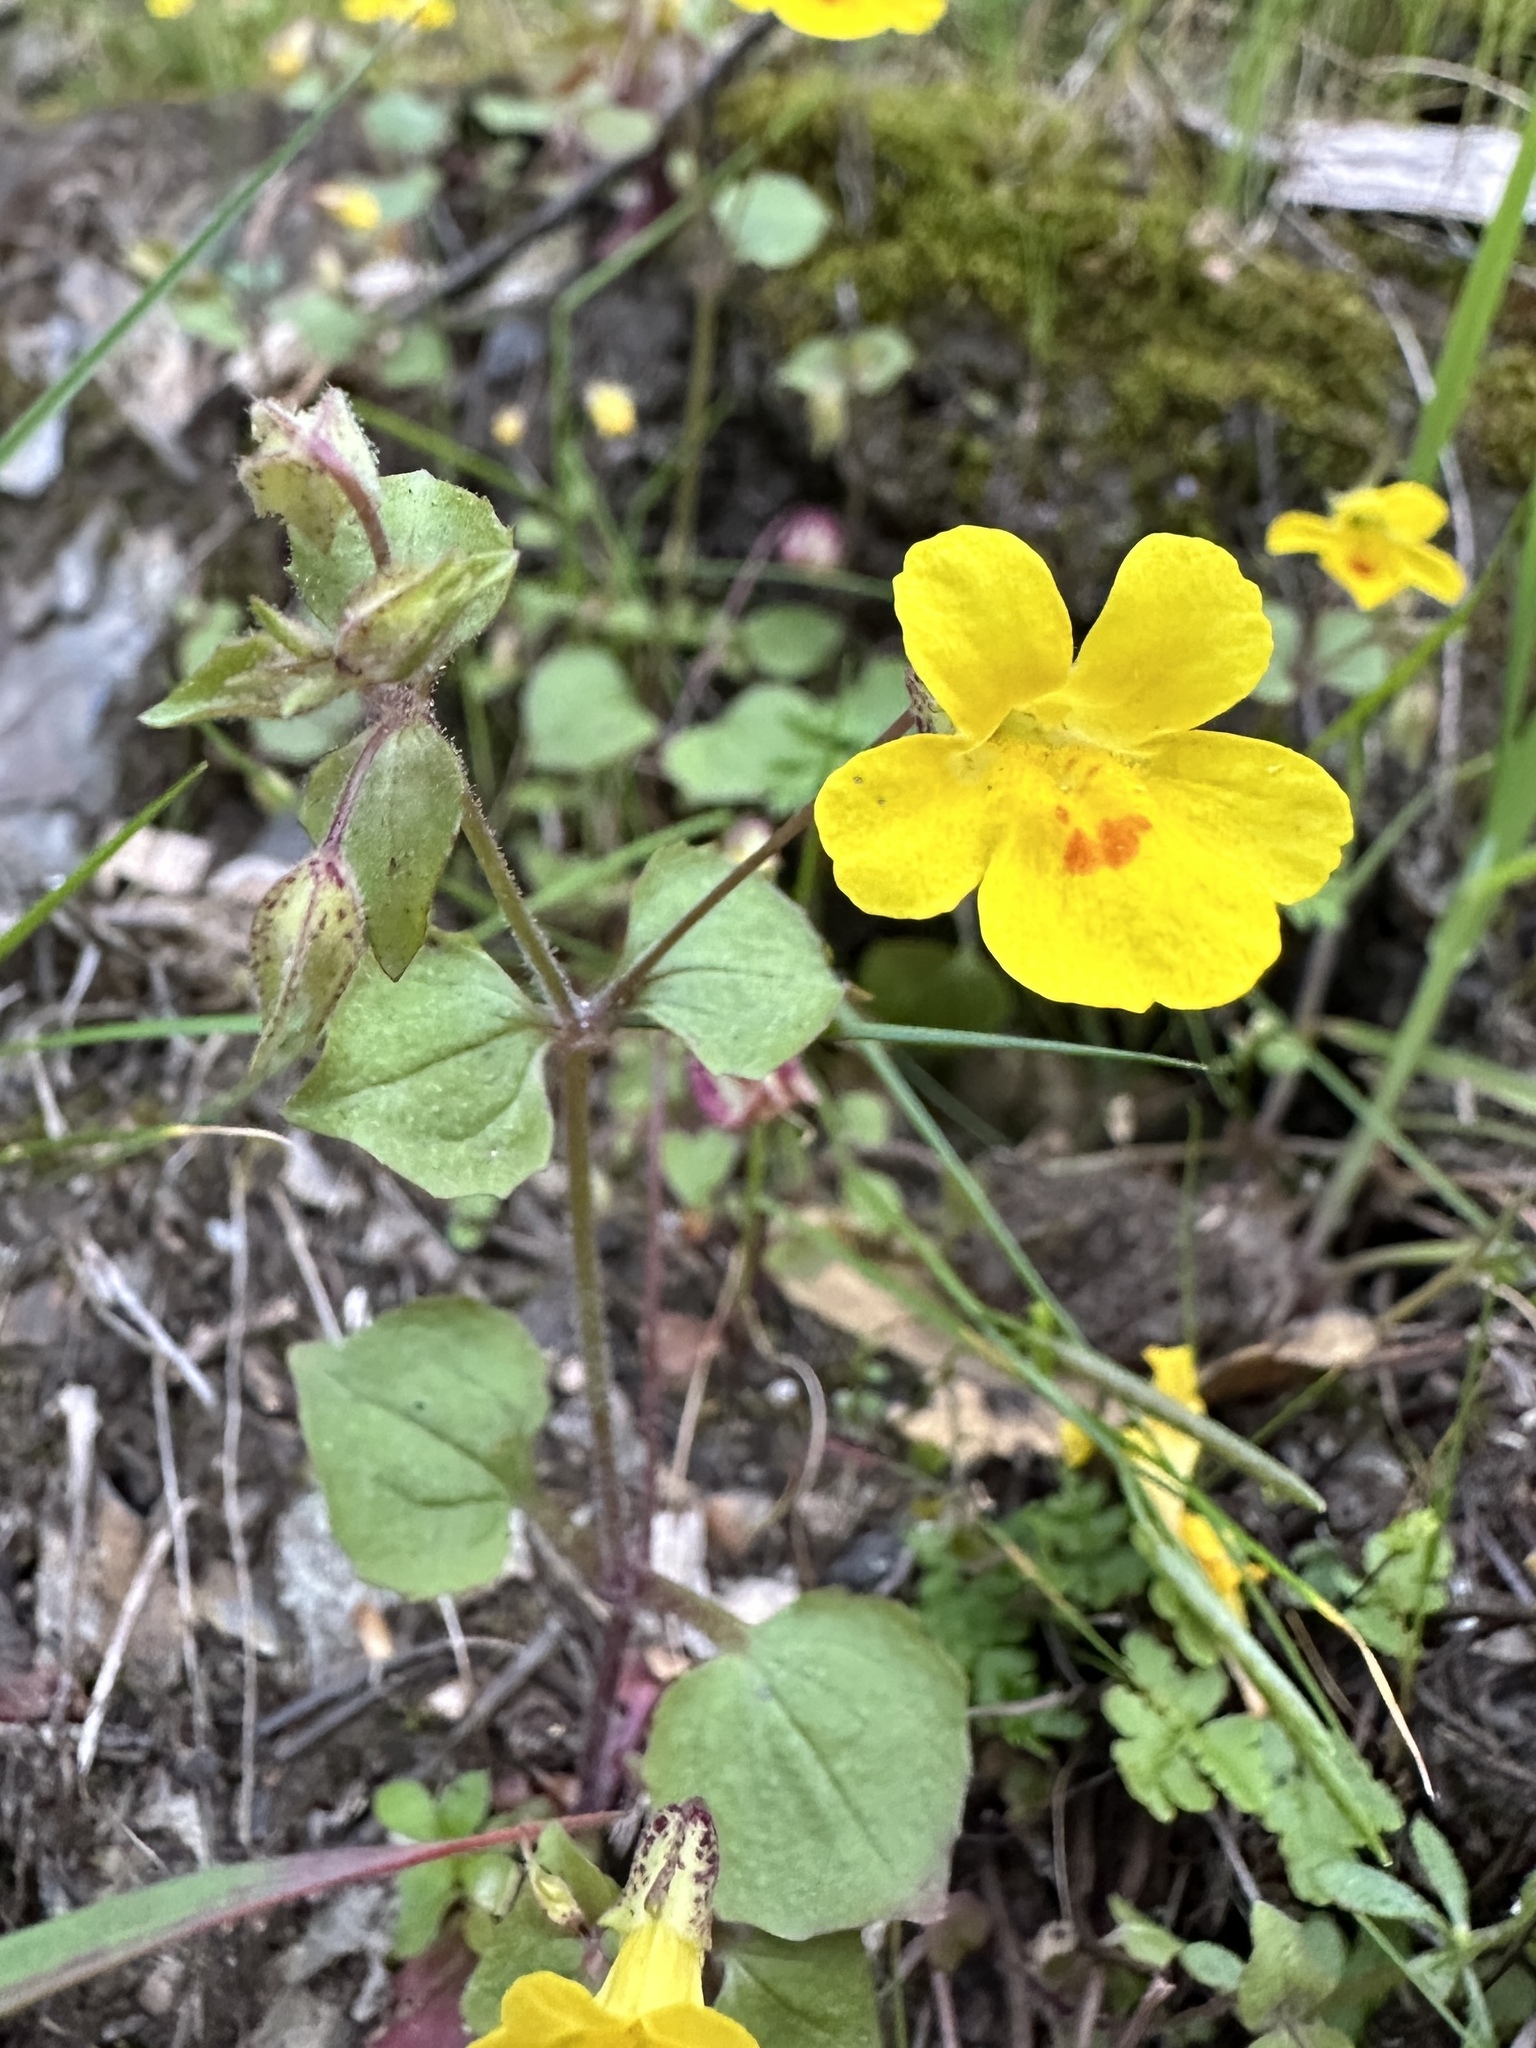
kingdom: Plantae
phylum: Tracheophyta
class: Magnoliopsida
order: Lamiales
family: Phrymaceae
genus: Erythranthe
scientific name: Erythranthe marmorata
